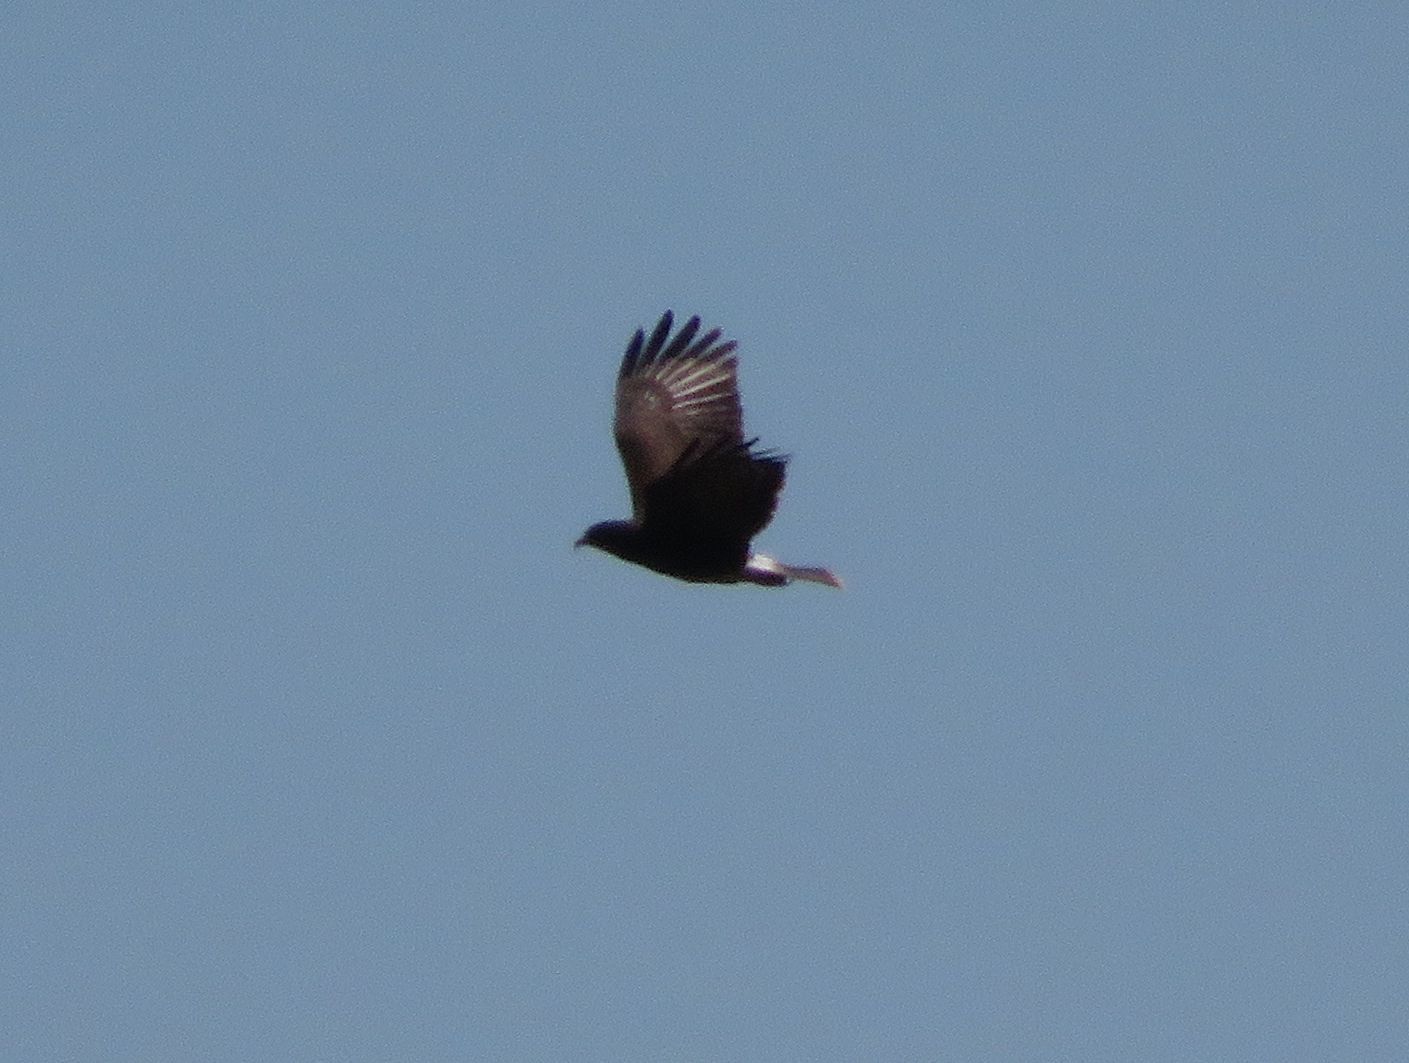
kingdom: Animalia
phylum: Chordata
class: Aves
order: Accipitriformes
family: Accipitridae
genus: Rostrhamus
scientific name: Rostrhamus sociabilis
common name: Snail kite
